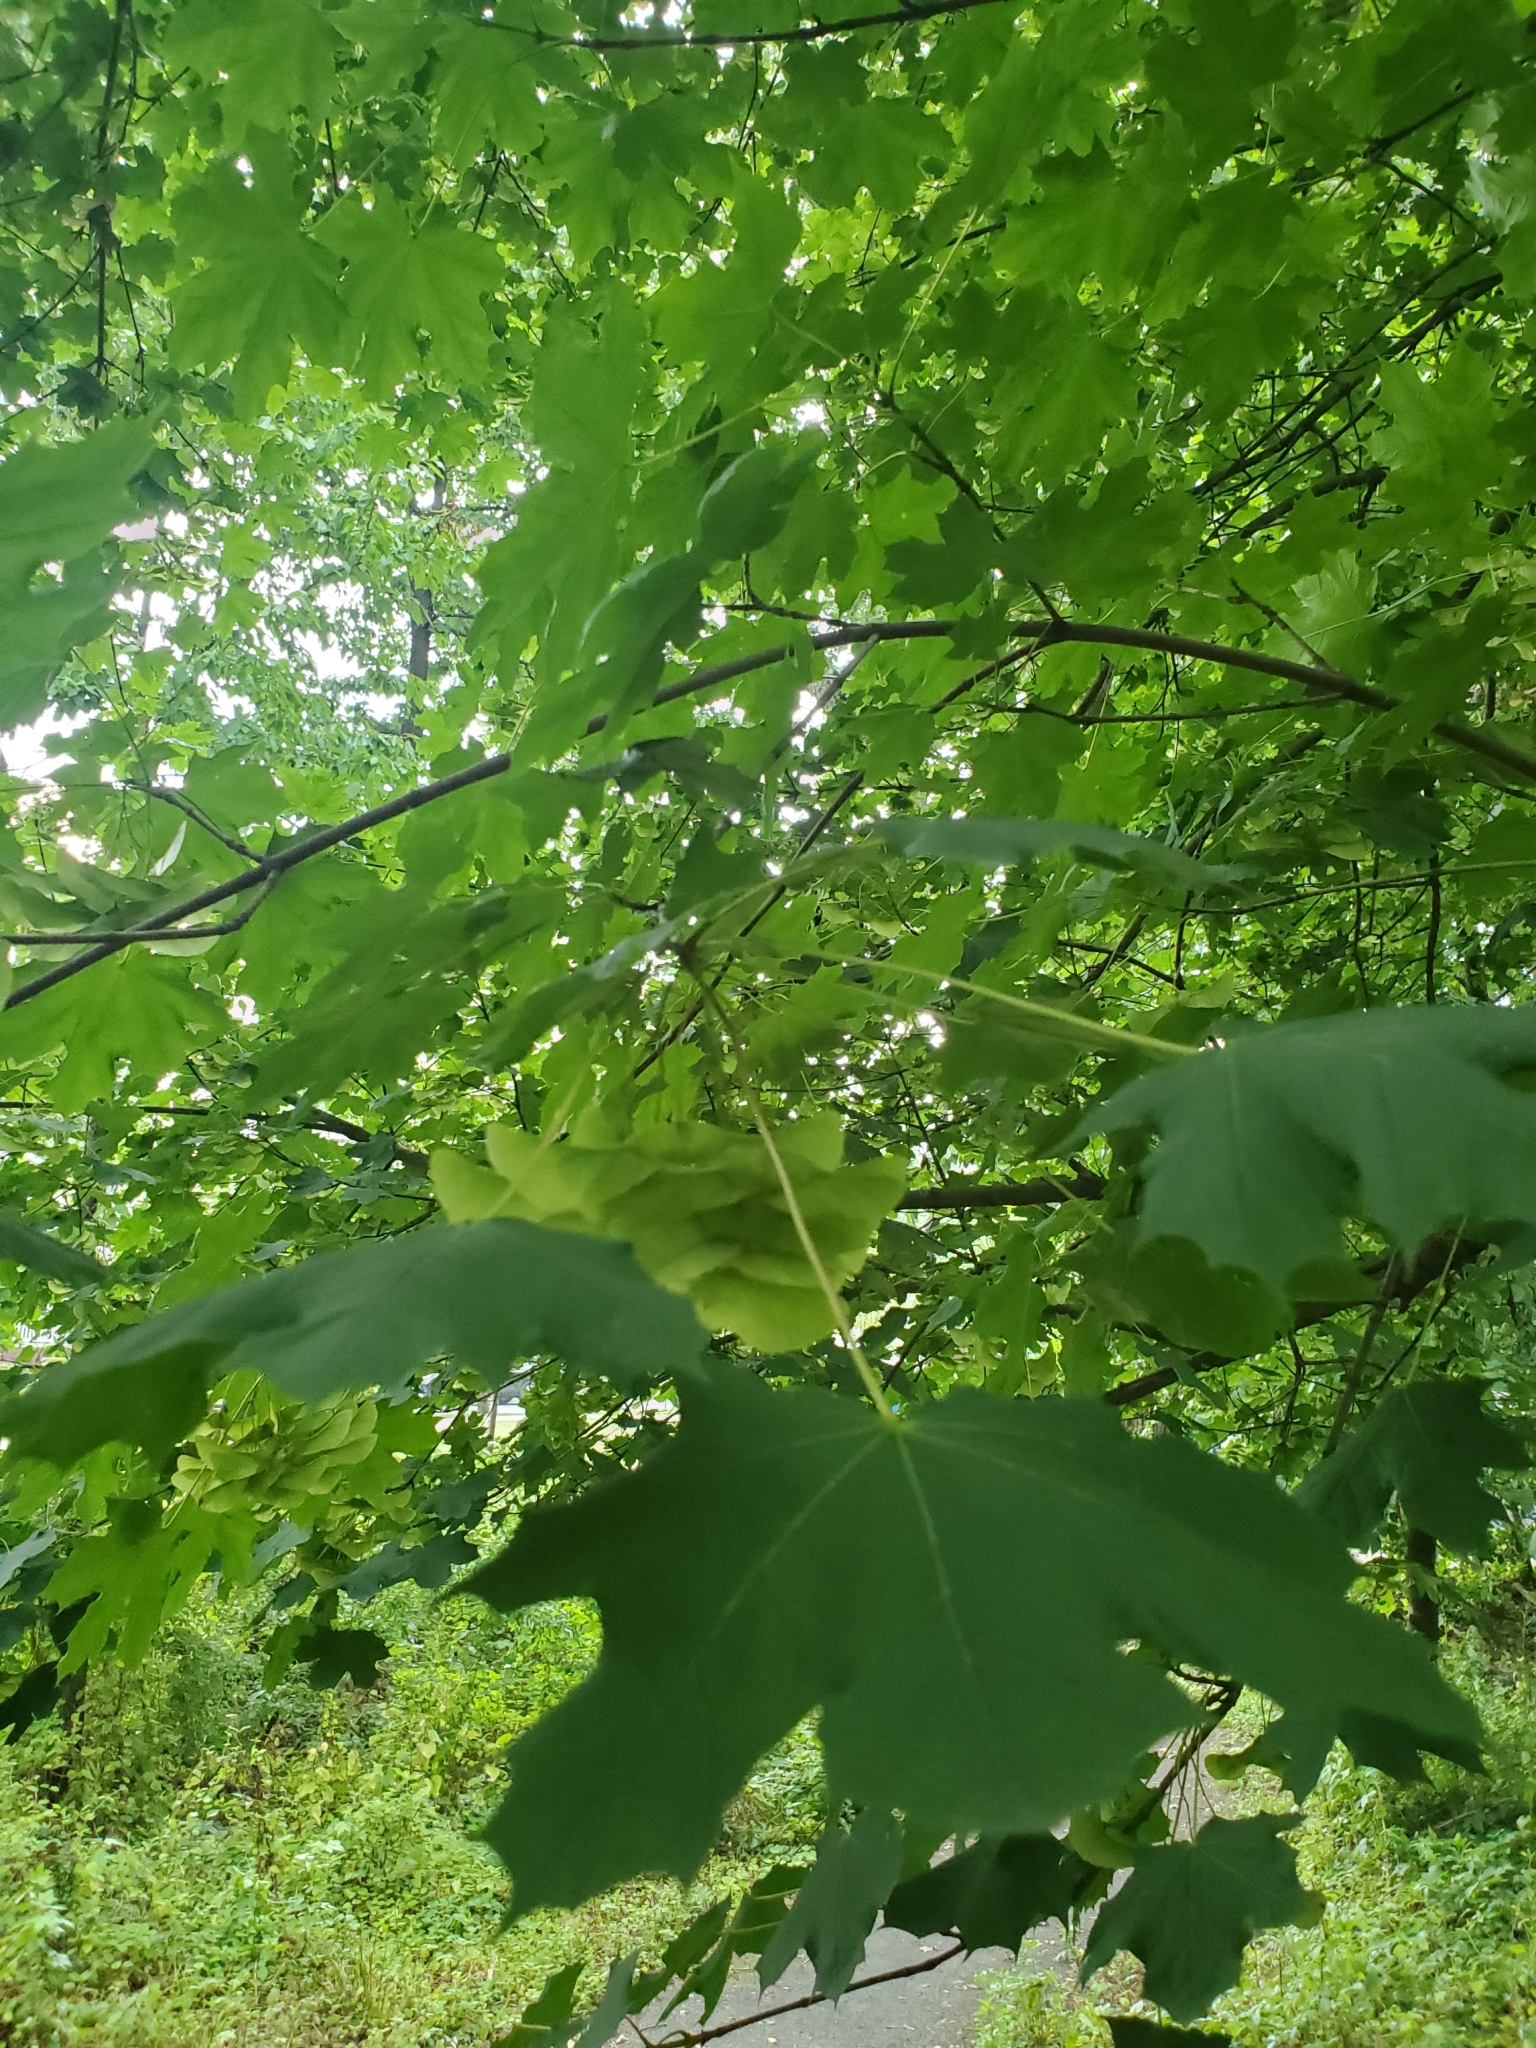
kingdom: Plantae
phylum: Tracheophyta
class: Magnoliopsida
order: Sapindales
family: Sapindaceae
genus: Acer
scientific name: Acer platanoides
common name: Norway maple
